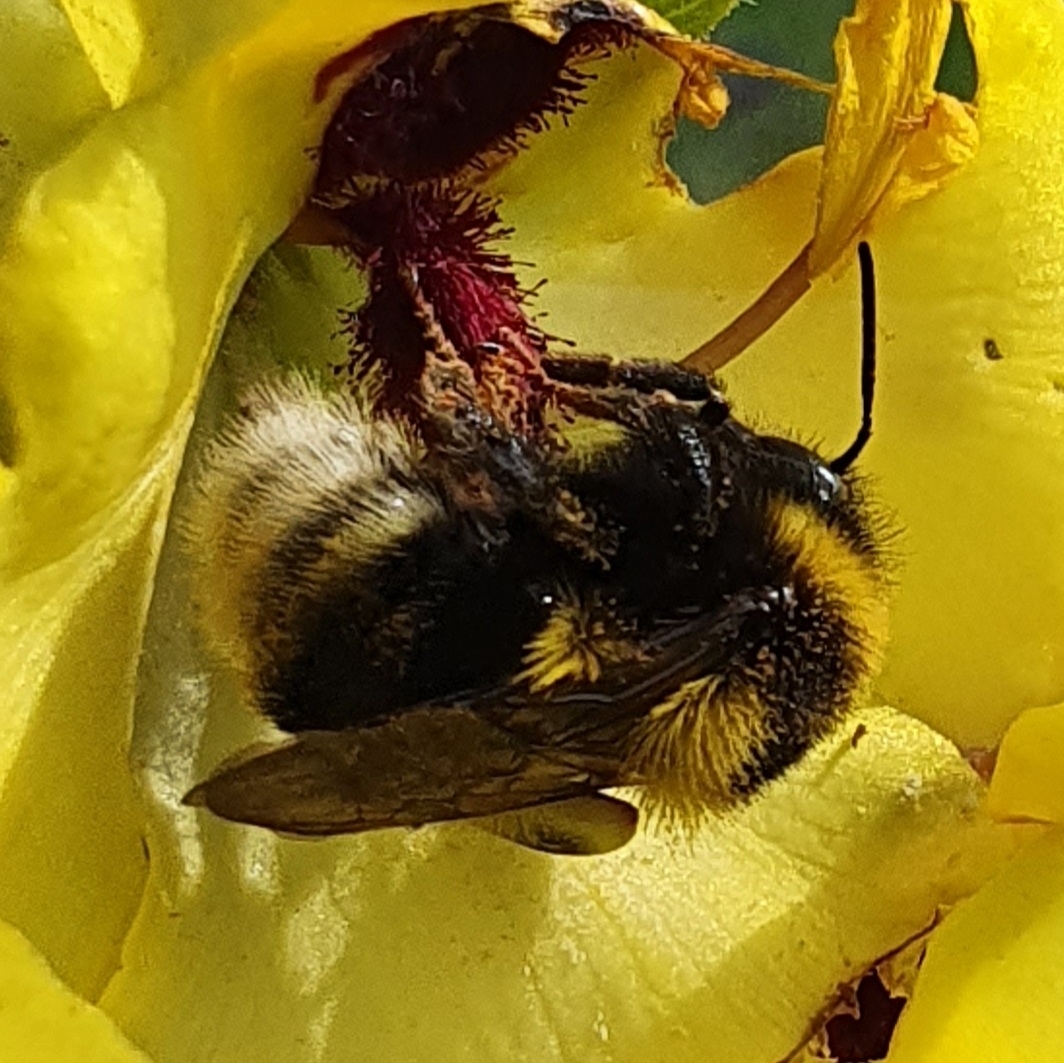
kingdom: Animalia
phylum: Arthropoda
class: Insecta
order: Hymenoptera
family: Apidae
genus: Bombus
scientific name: Bombus ruderatus
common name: Large garden bumblebee
